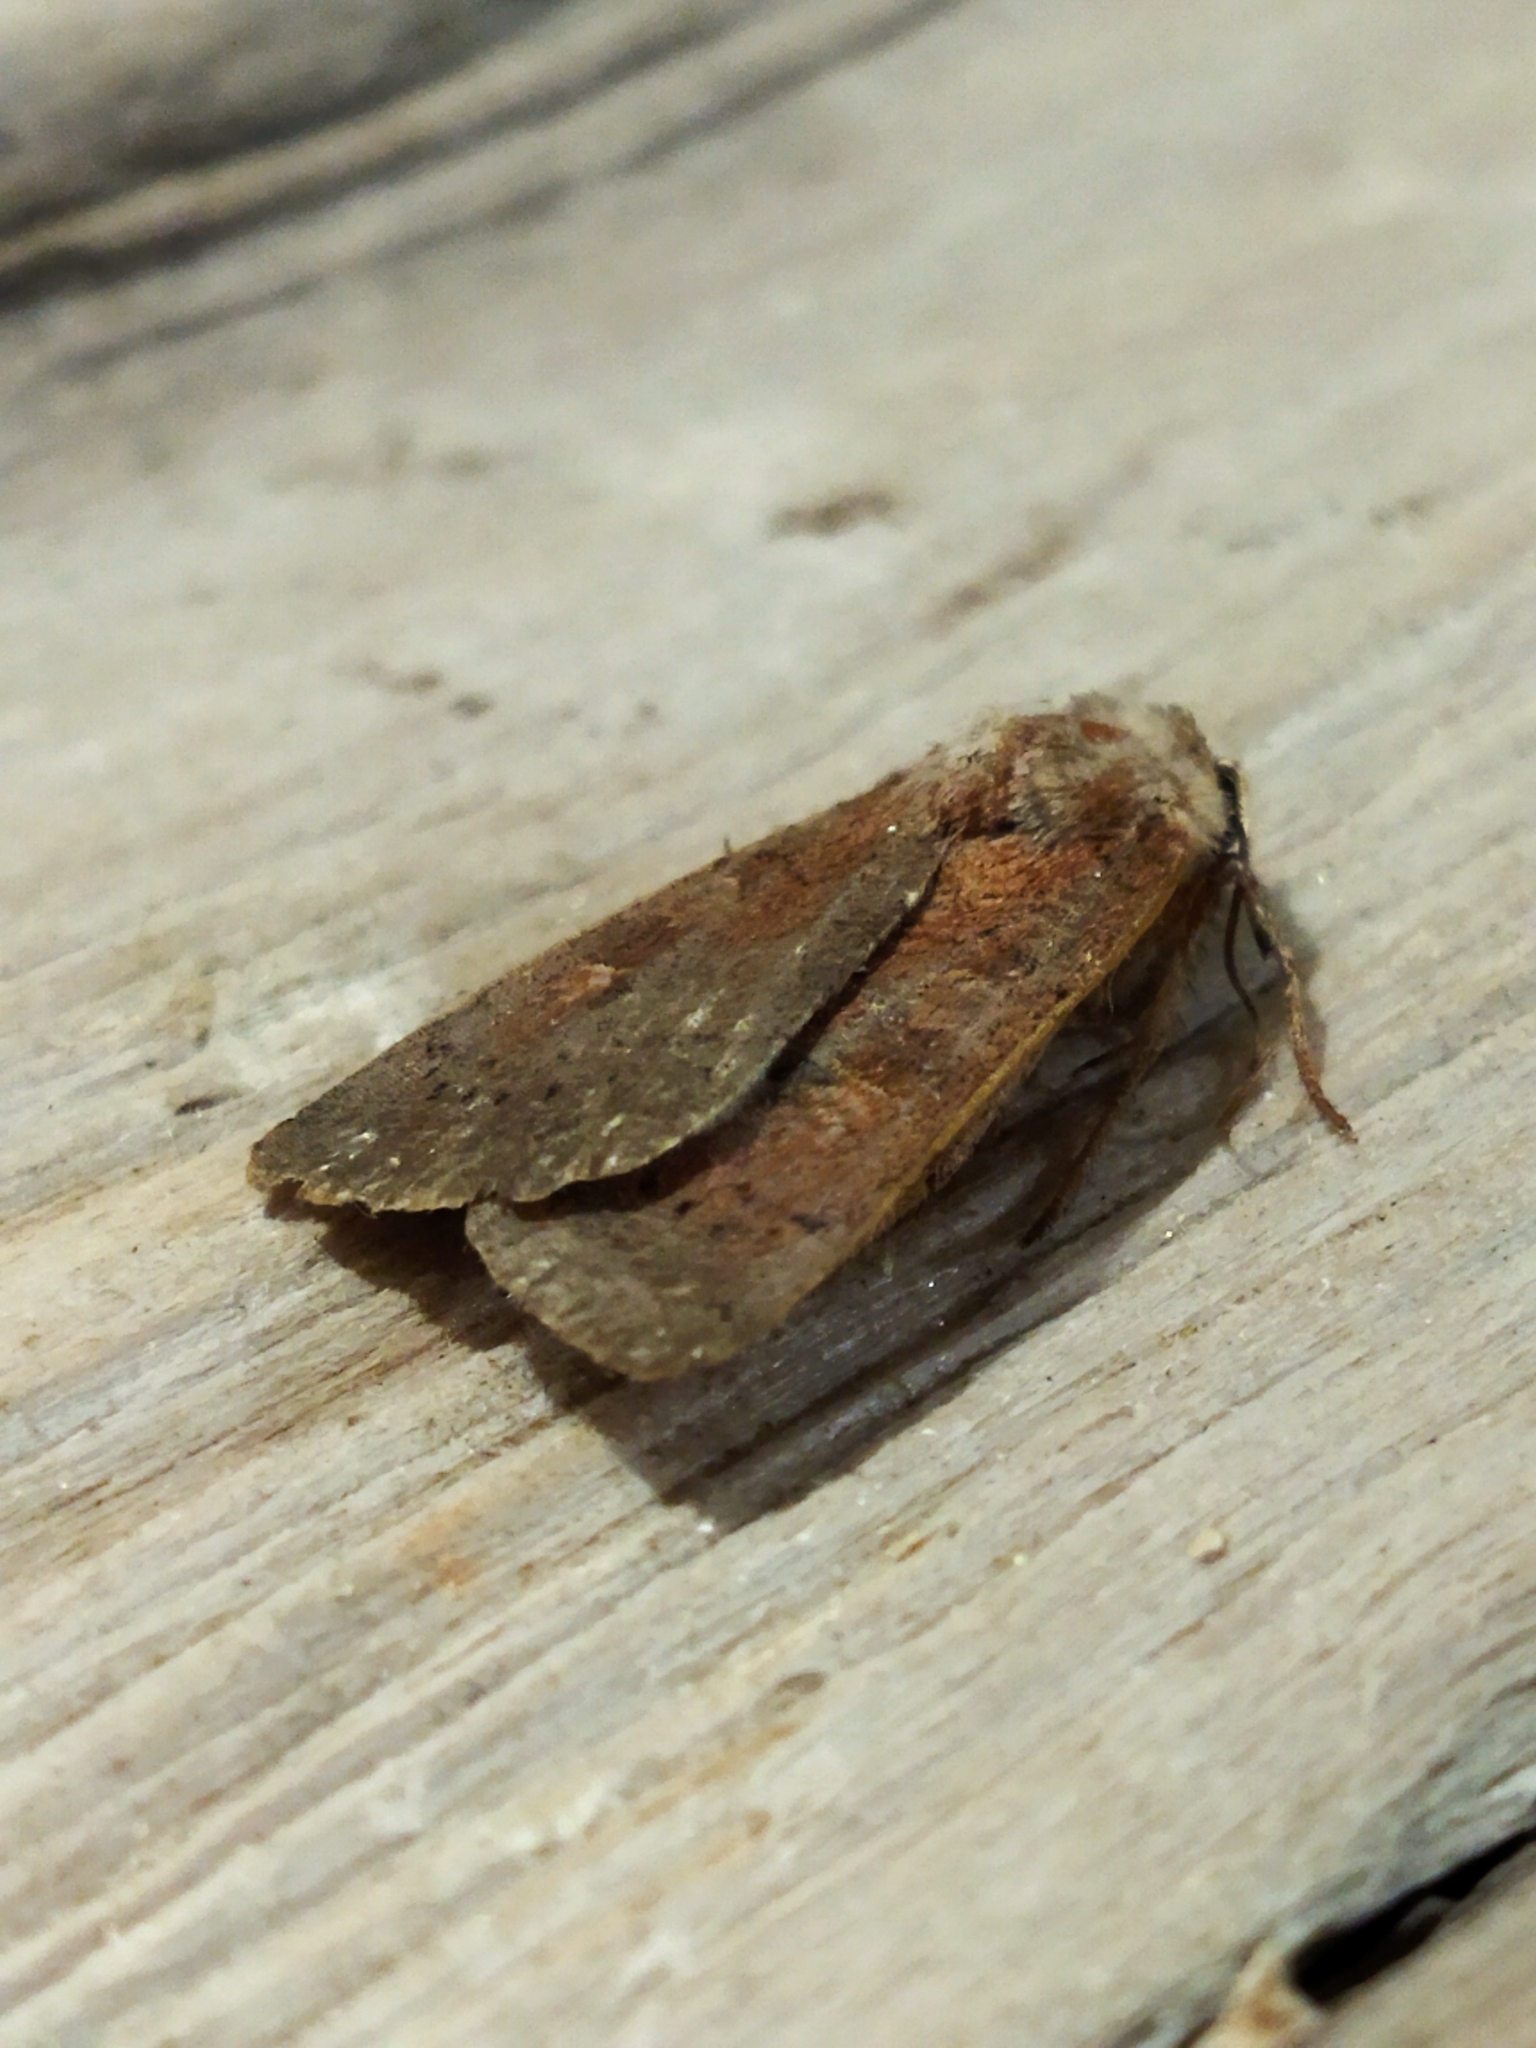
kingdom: Animalia
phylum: Arthropoda
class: Insecta
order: Lepidoptera
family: Noctuidae
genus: Xestia
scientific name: Xestia xanthographa
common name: Square-spot rustic
